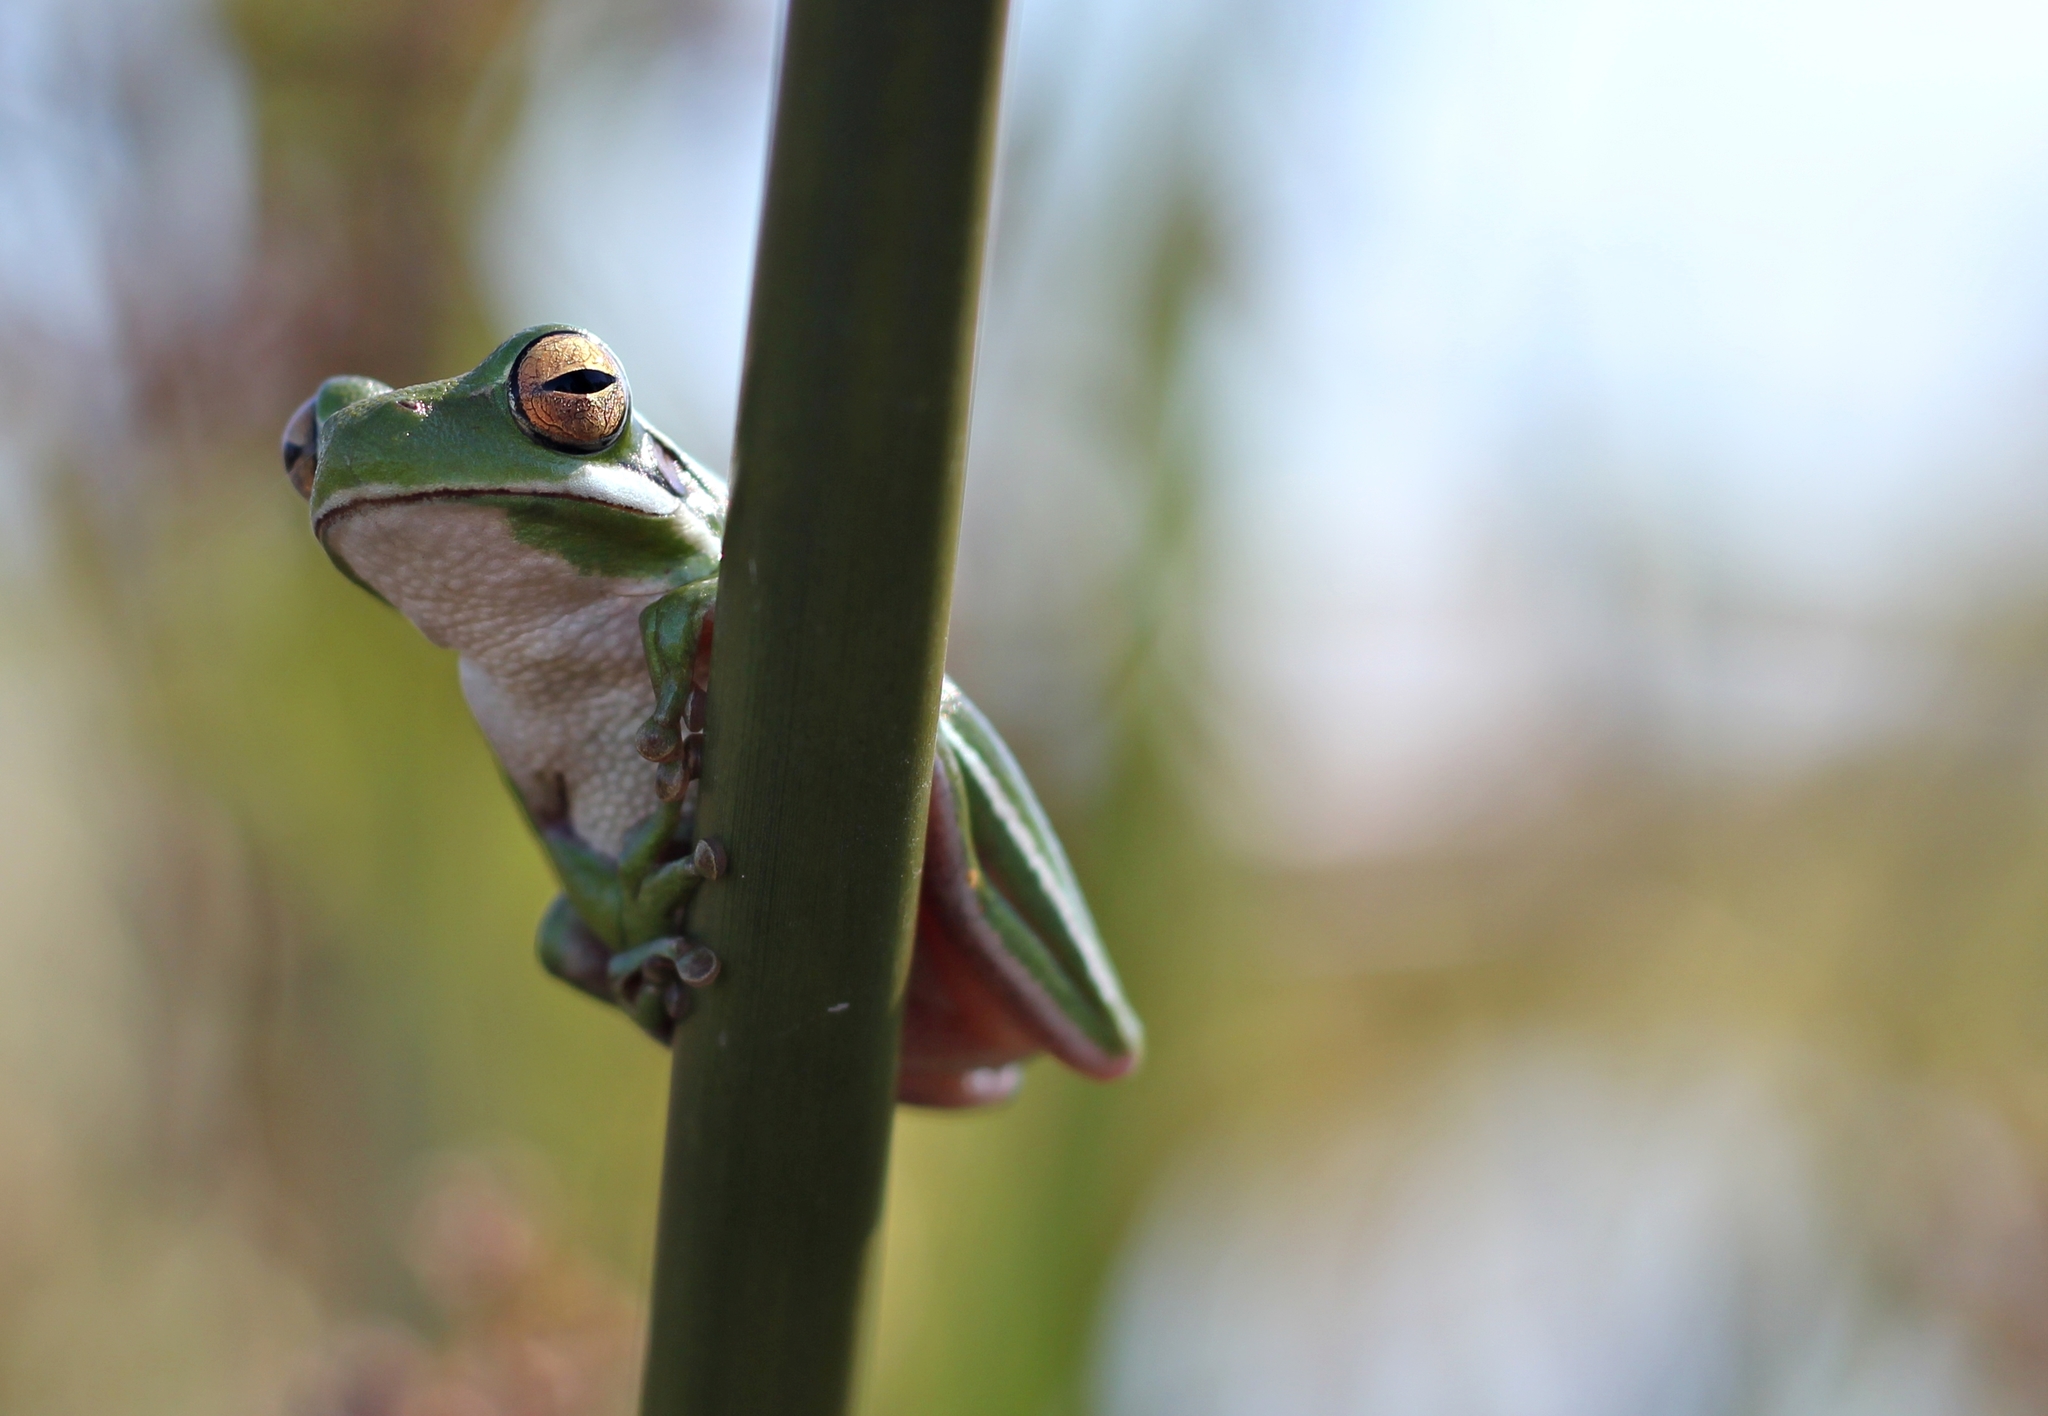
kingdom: Animalia
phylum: Chordata
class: Amphibia
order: Anura
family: Hylidae
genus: Boana
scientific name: Boana pulchella
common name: Montevideo treefrog
